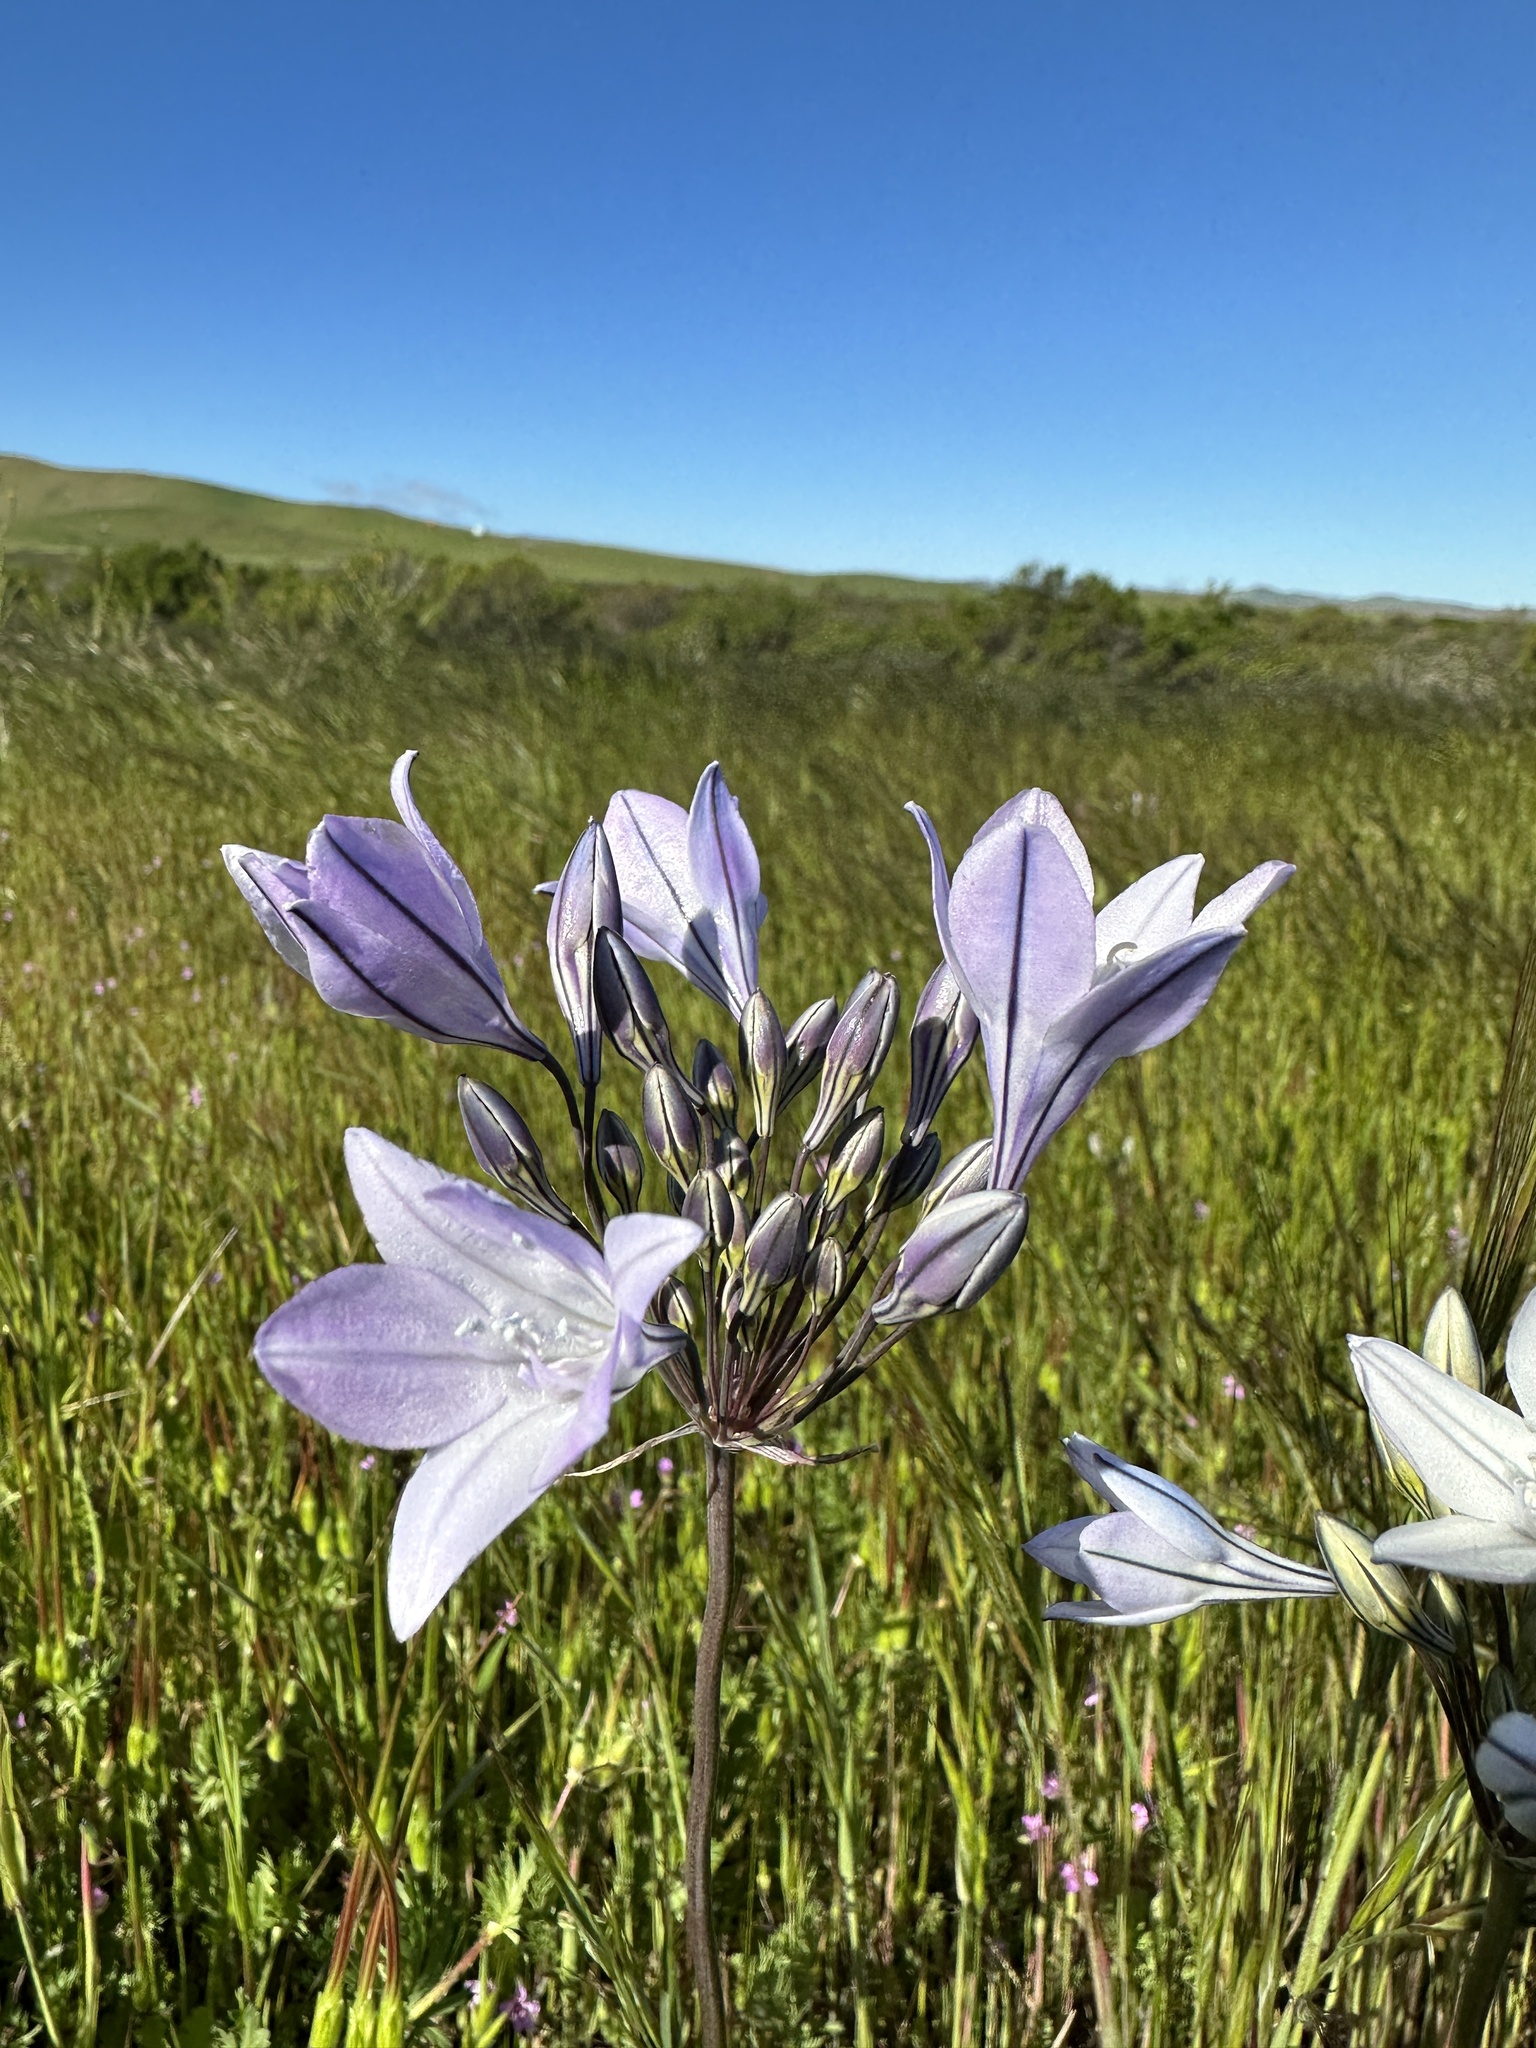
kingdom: Plantae
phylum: Tracheophyta
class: Liliopsida
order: Asparagales
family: Asparagaceae
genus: Triteleia
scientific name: Triteleia laxa
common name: Triplet-lily
